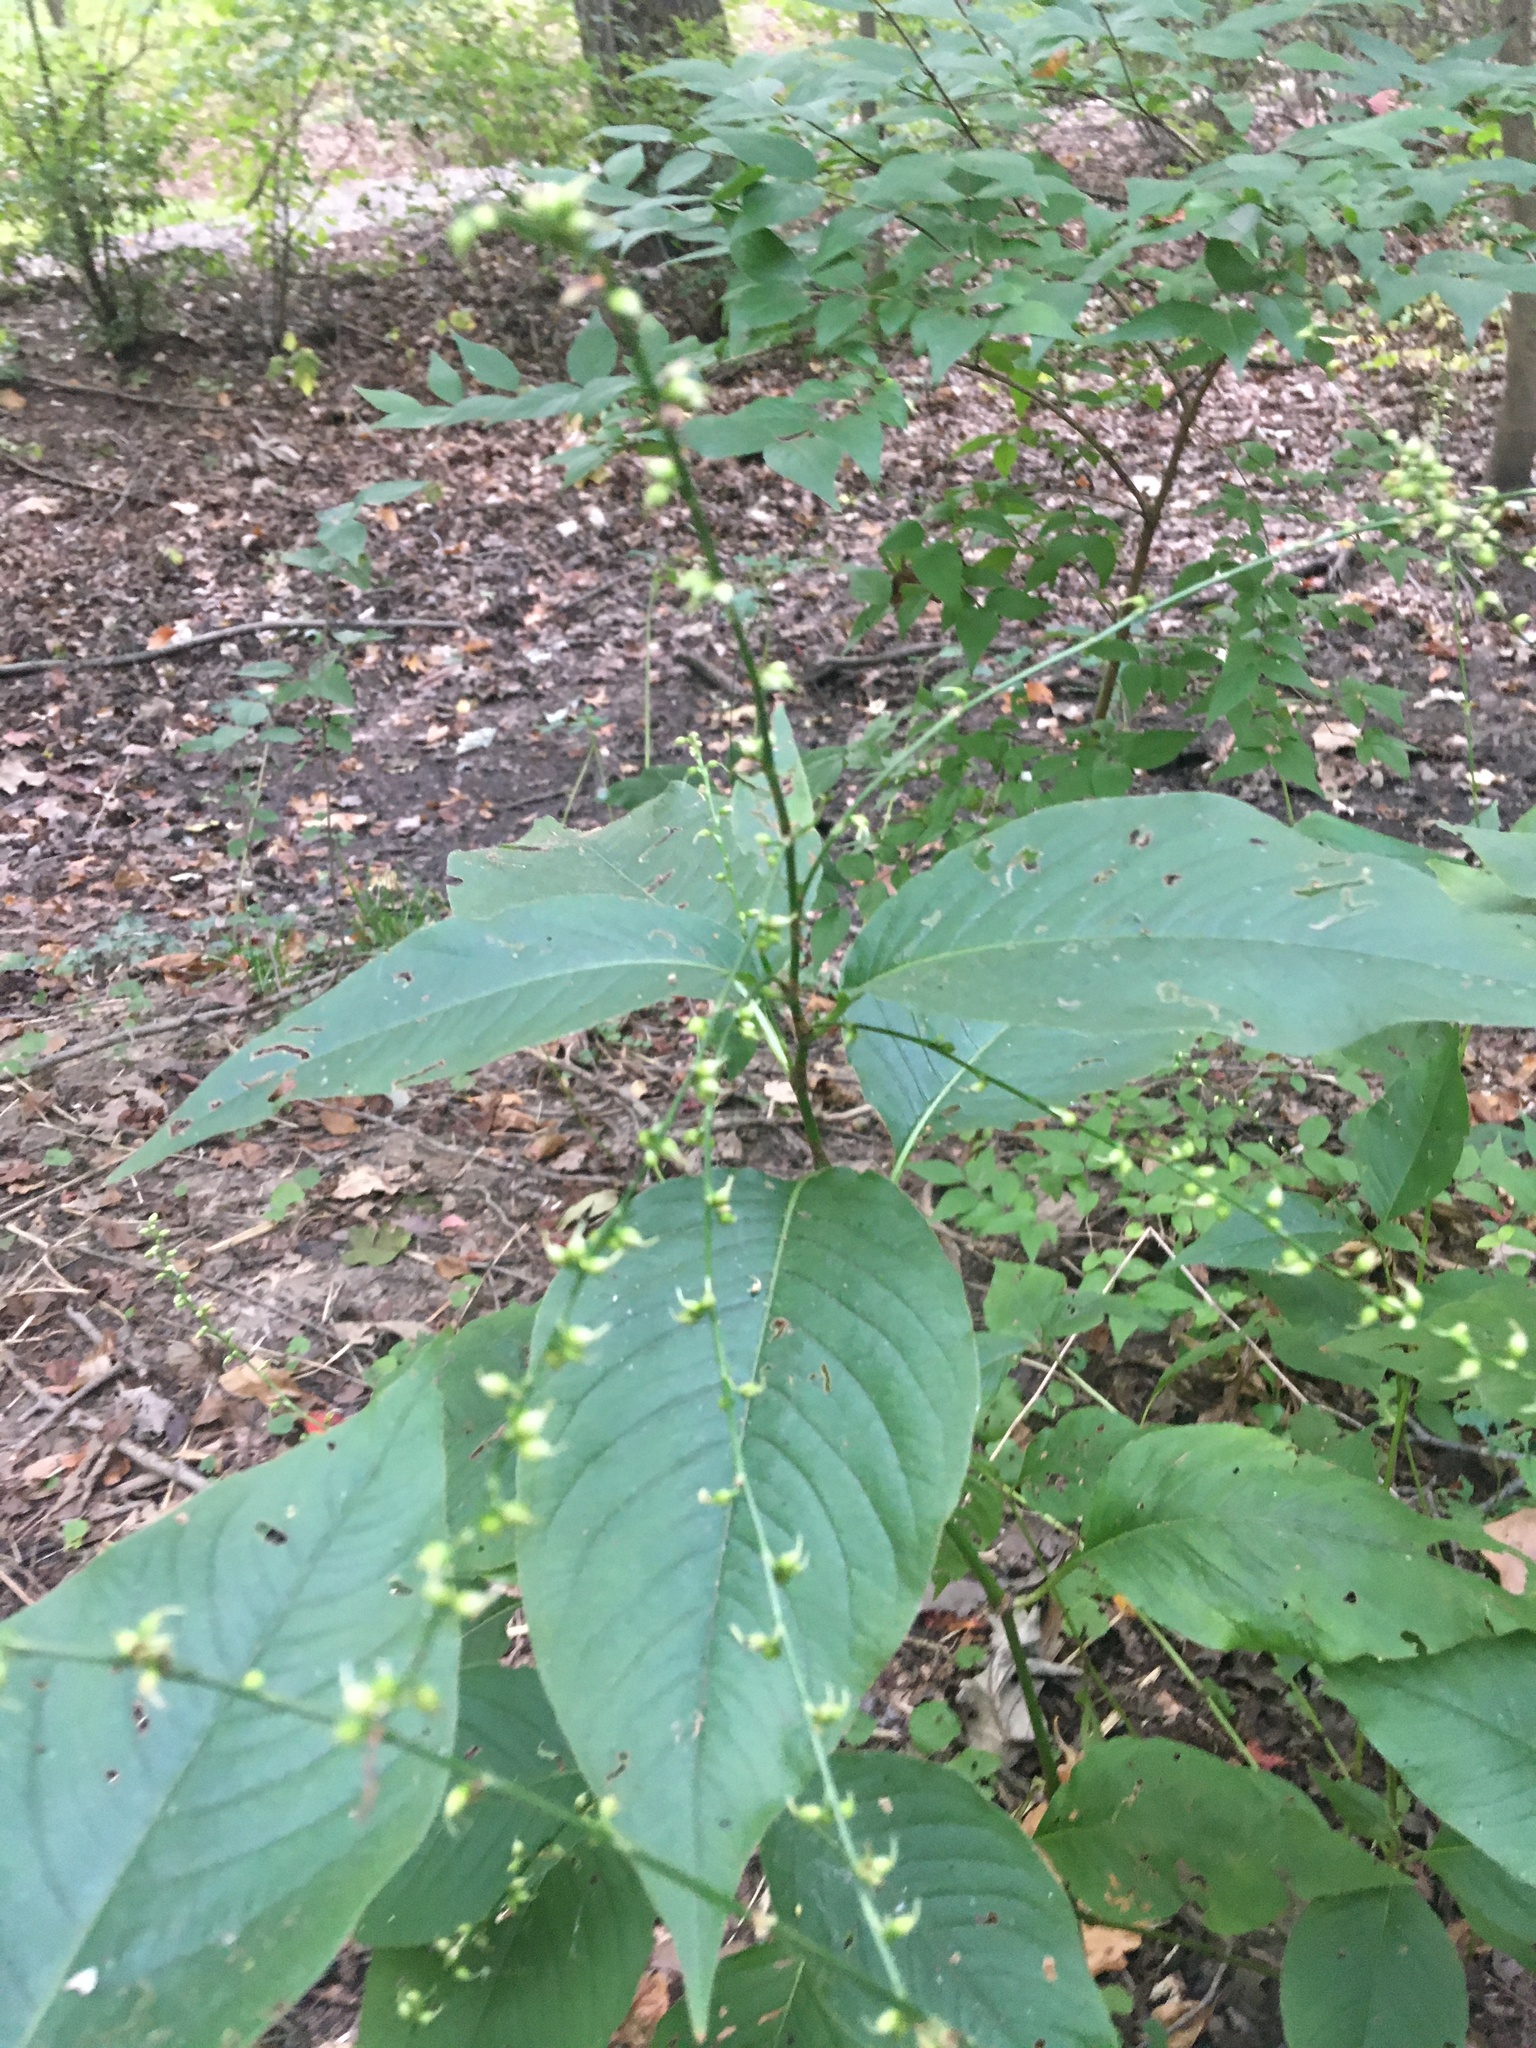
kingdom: Plantae
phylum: Tracheophyta
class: Magnoliopsida
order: Caryophyllales
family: Polygonaceae
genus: Persicaria
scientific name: Persicaria virginiana
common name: Jumpseed
